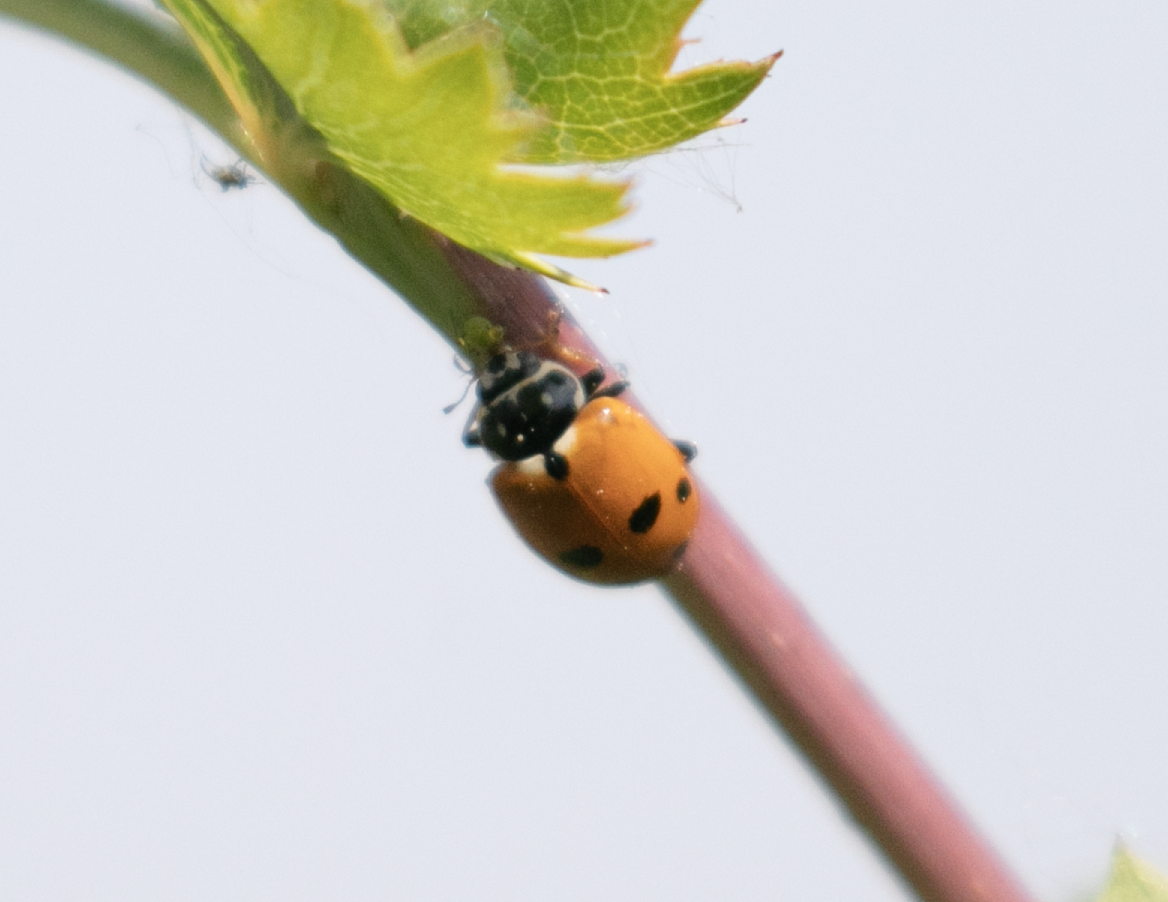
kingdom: Animalia
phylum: Arthropoda
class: Insecta
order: Coleoptera
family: Coccinellidae
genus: Hippodamia
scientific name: Hippodamia variegata
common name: Ladybird beetle
